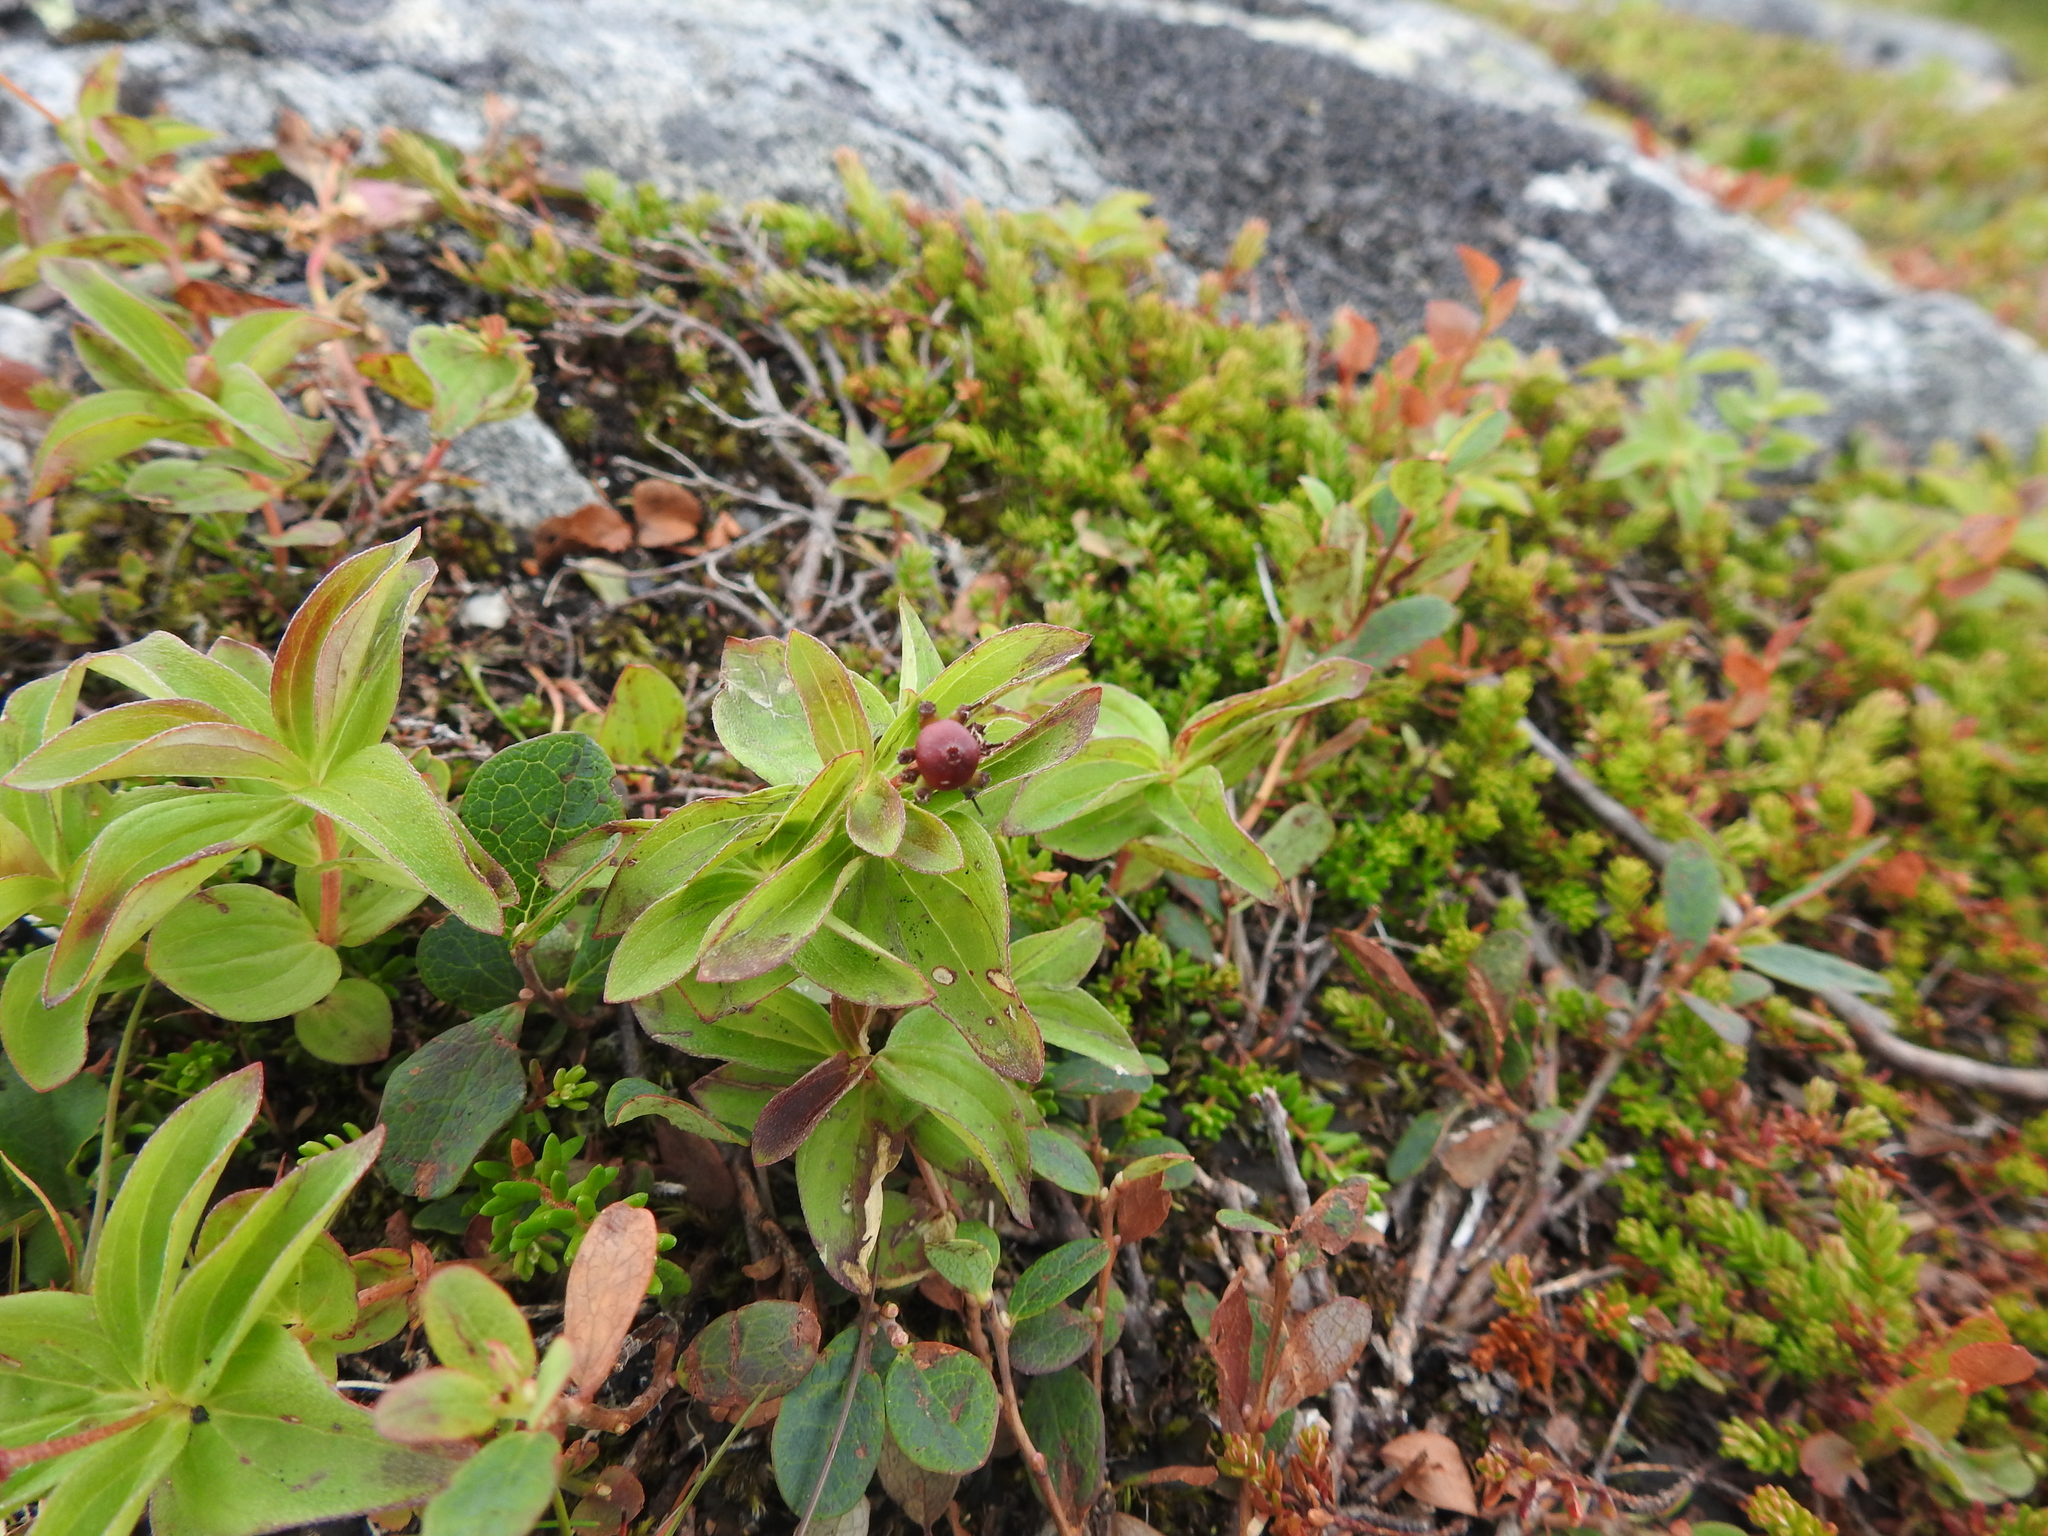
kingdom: Plantae
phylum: Tracheophyta
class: Magnoliopsida
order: Cornales
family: Cornaceae
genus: Cornus
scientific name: Cornus suecica
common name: Dwarf cornel
